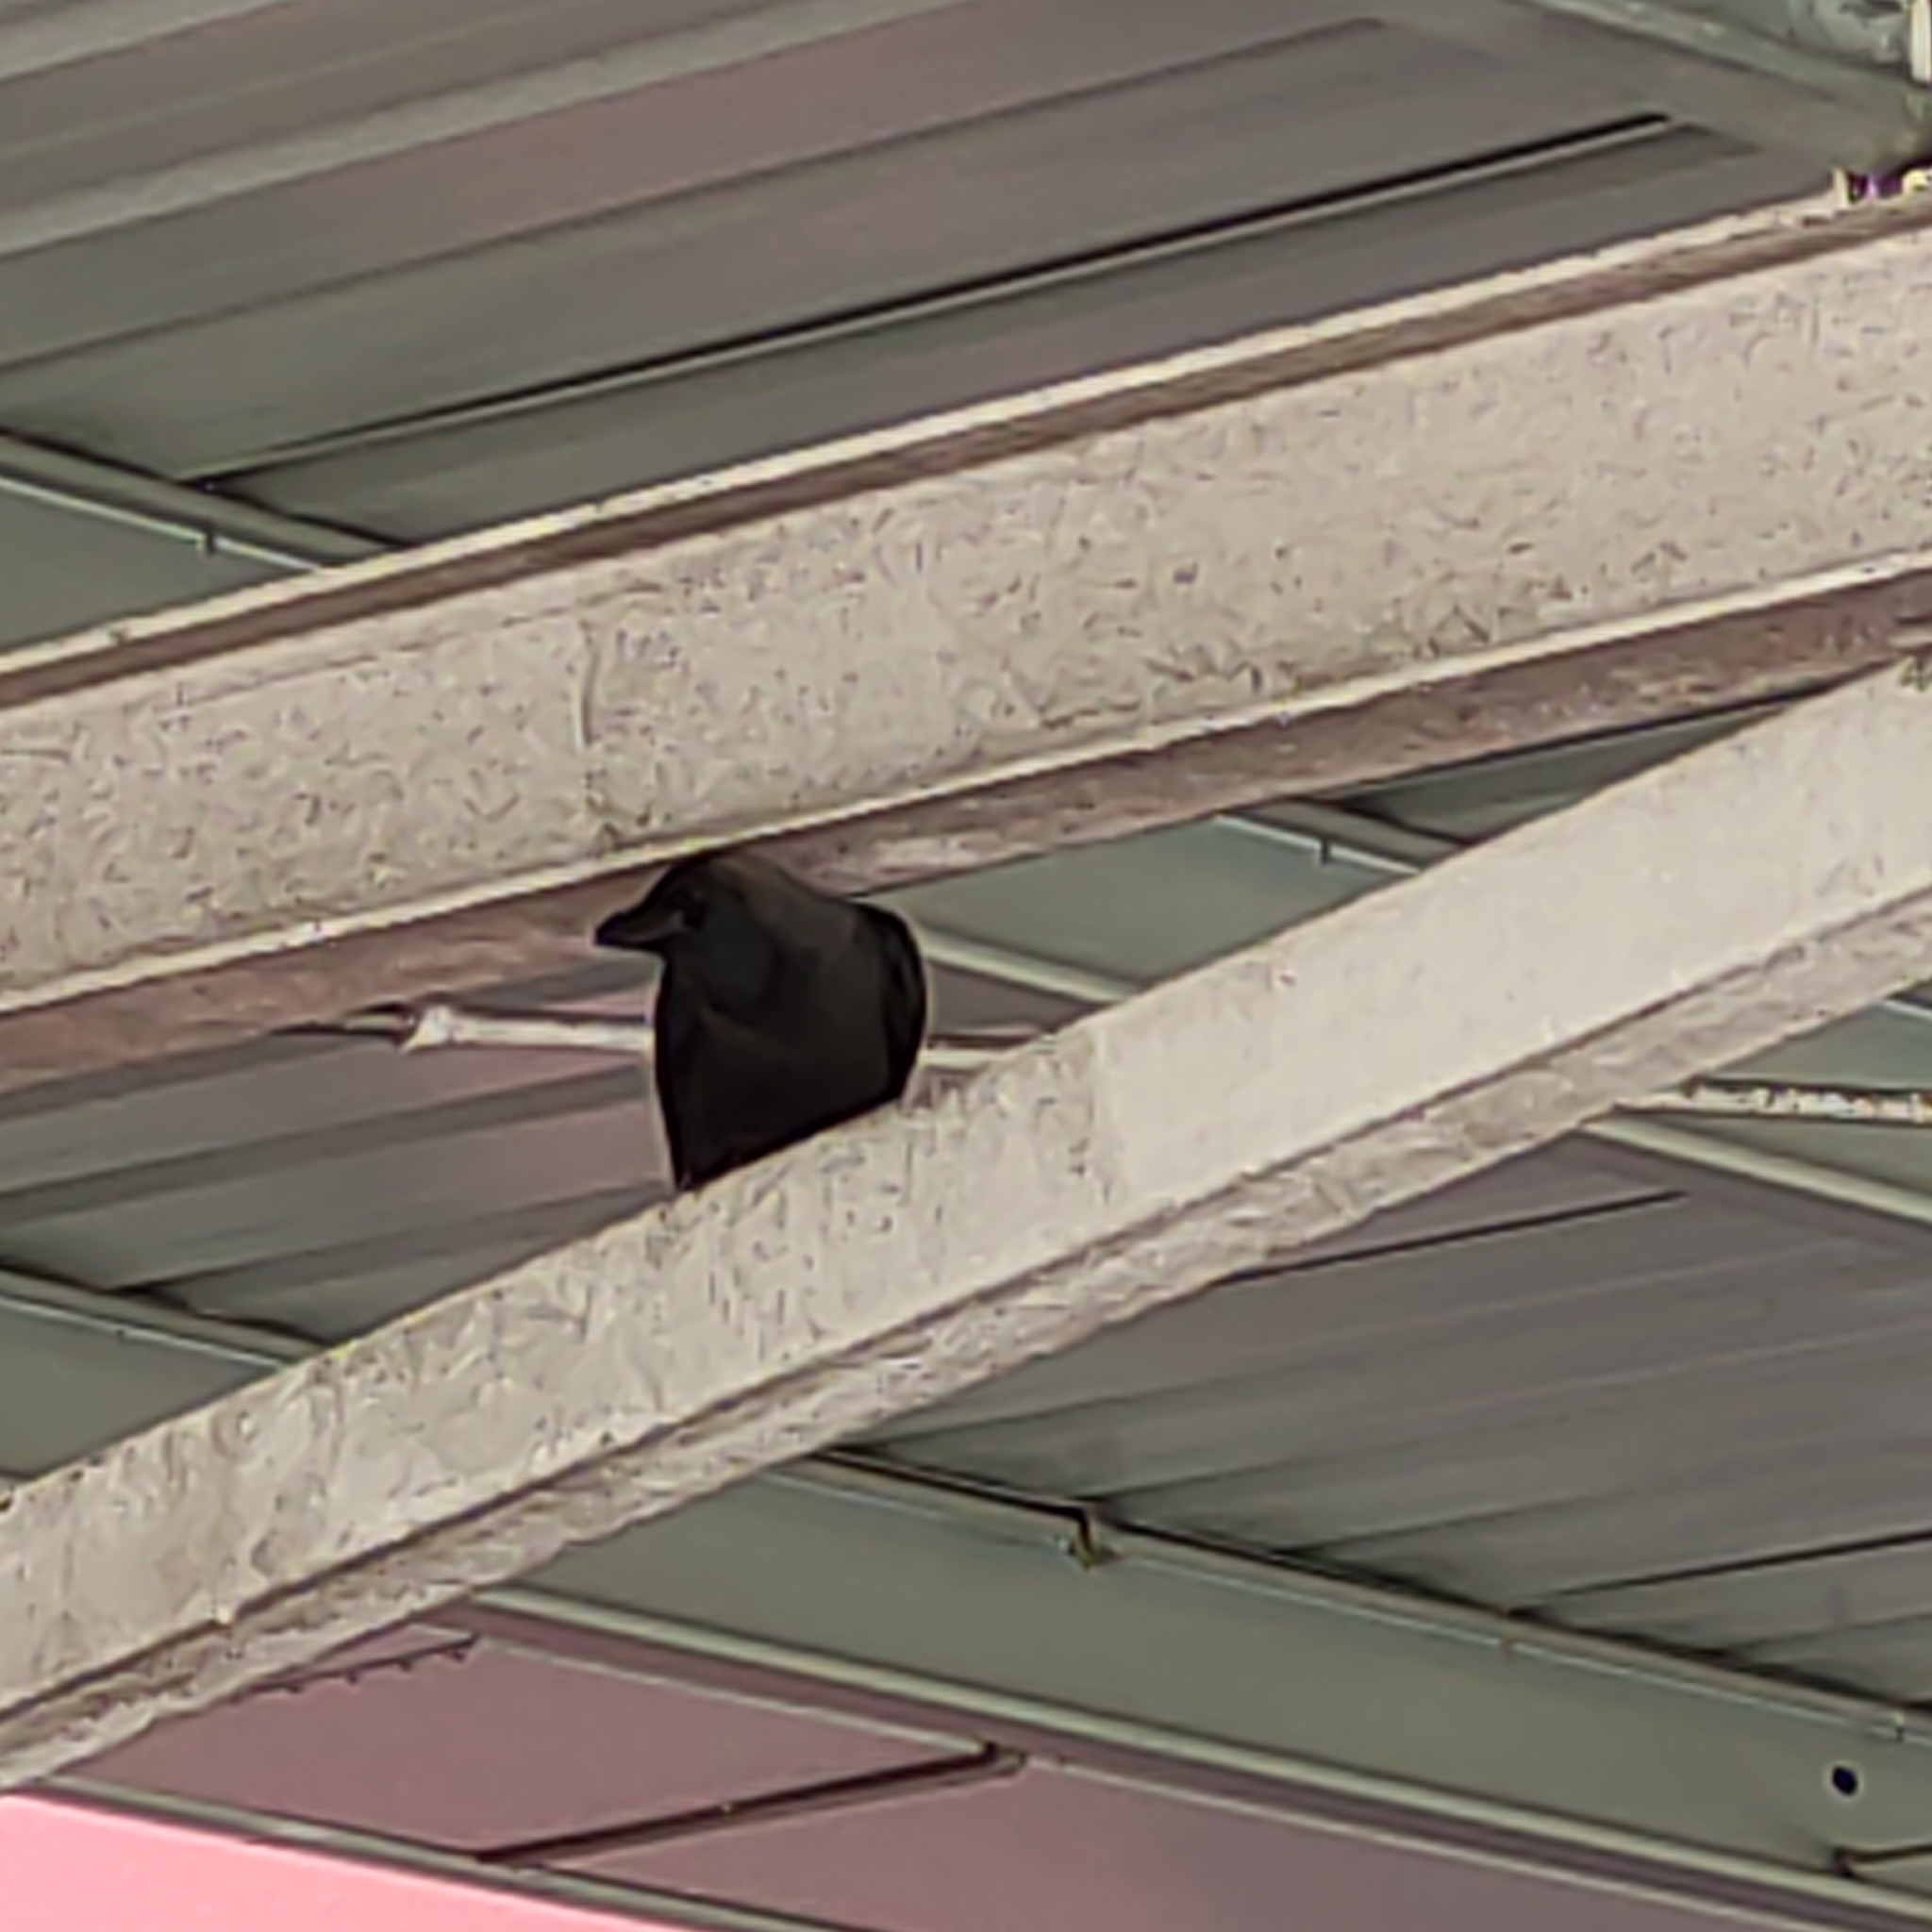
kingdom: Animalia
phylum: Chordata
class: Aves
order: Passeriformes
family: Corvidae
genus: Corvus
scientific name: Corvus splendens
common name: House crow
